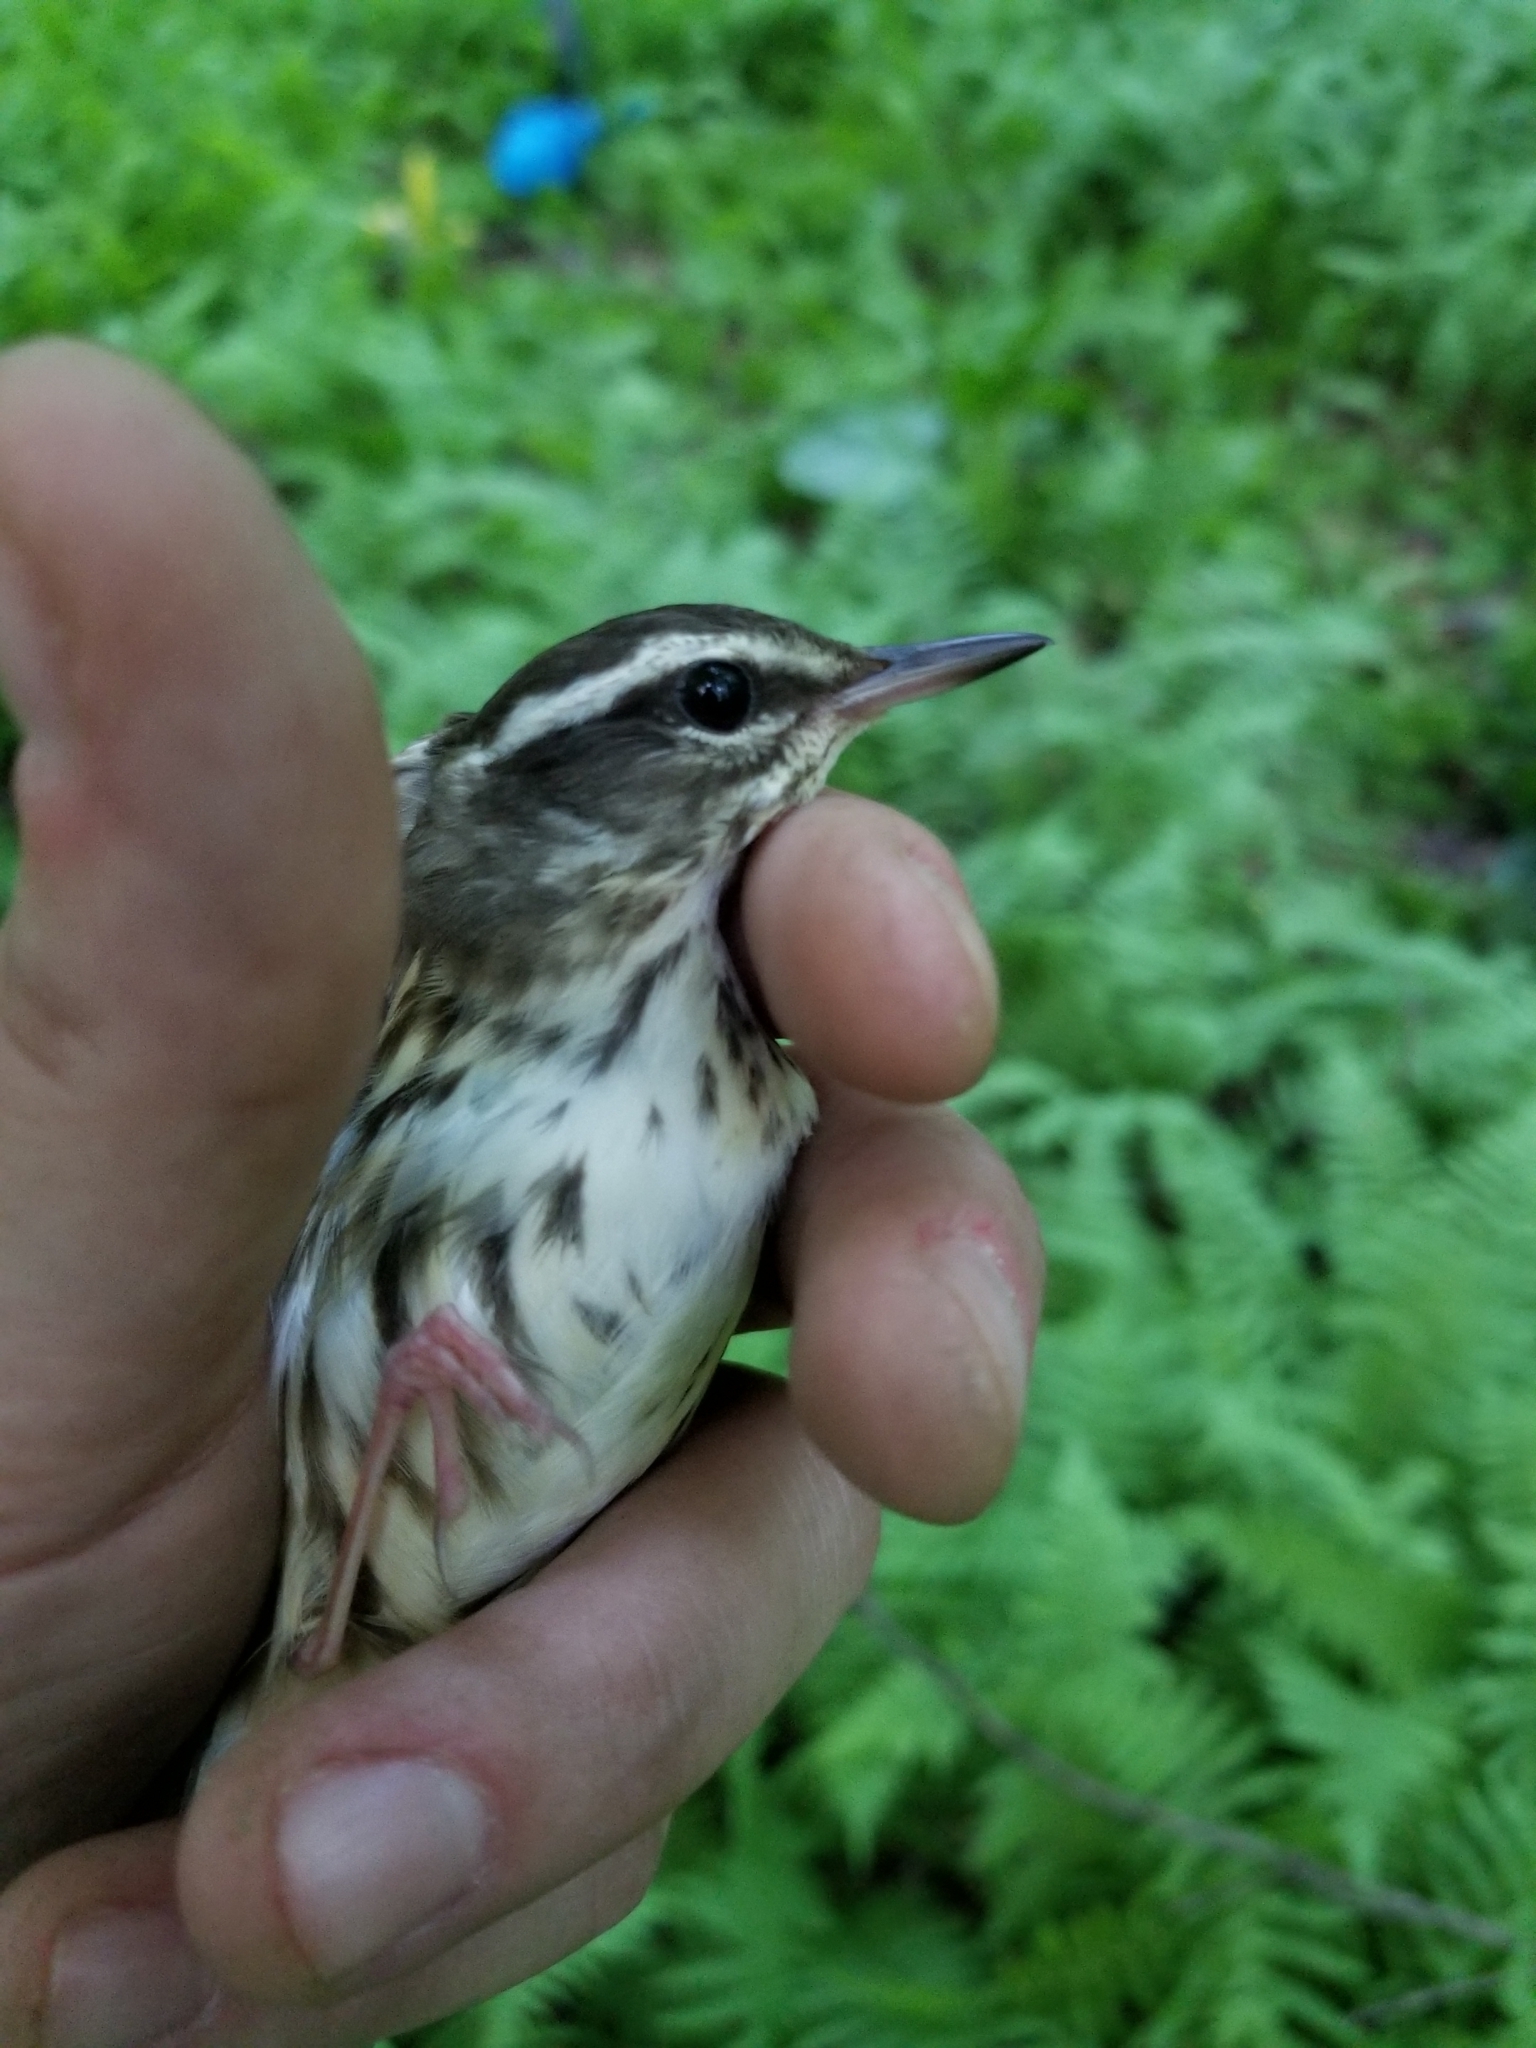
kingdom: Animalia
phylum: Chordata
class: Aves
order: Passeriformes
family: Parulidae
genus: Parkesia
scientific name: Parkesia motacilla
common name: Louisiana waterthrush
